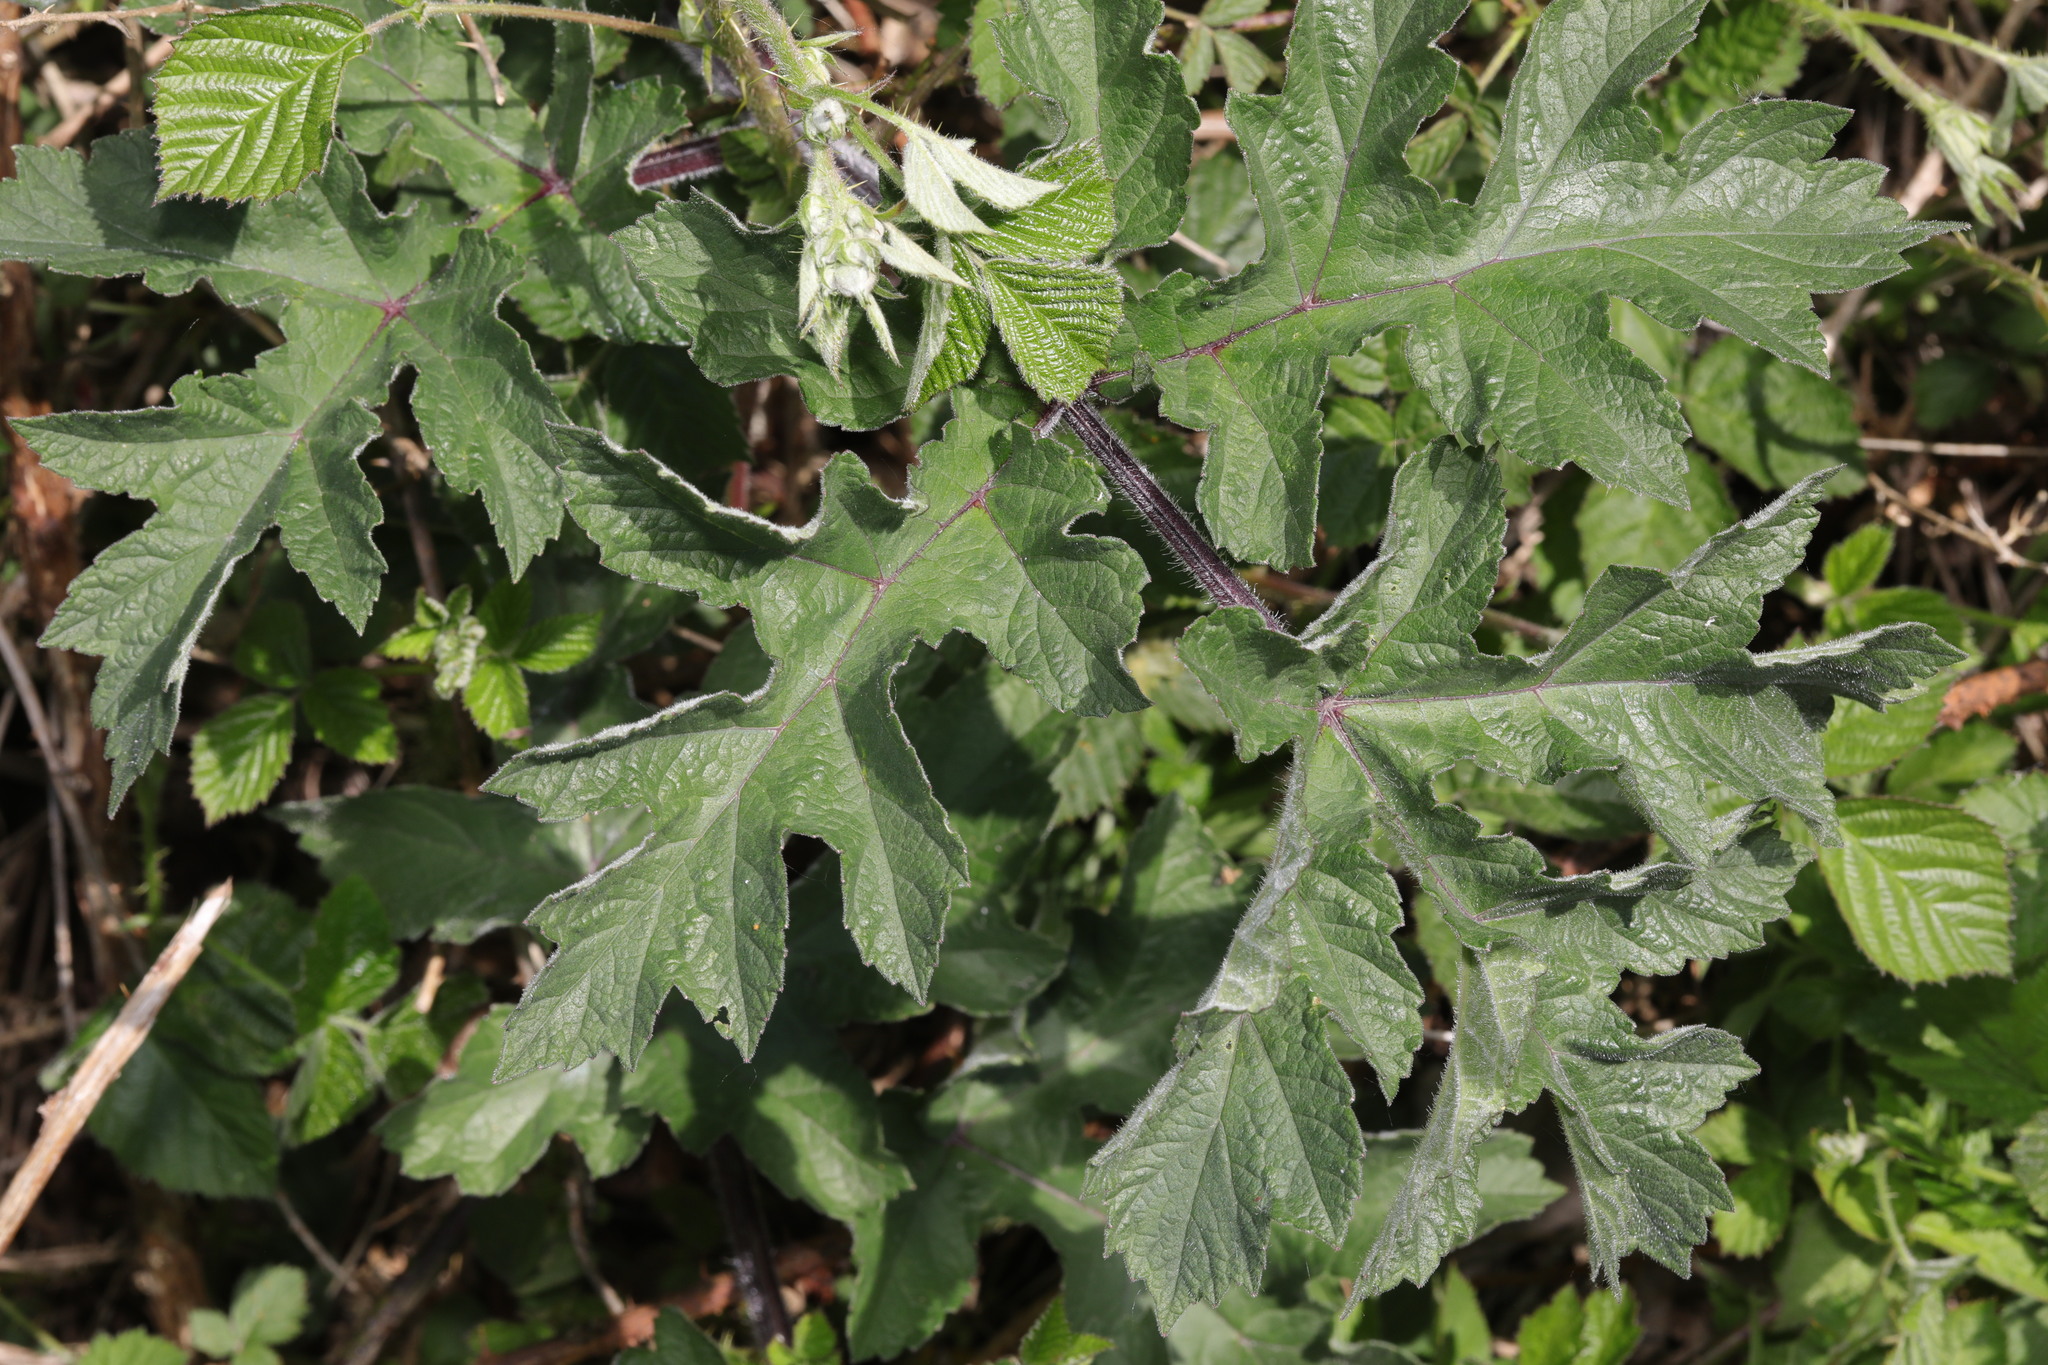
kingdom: Plantae
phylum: Tracheophyta
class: Magnoliopsida
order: Apiales
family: Apiaceae
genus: Heracleum
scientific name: Heracleum sphondylium
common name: Hogweed
